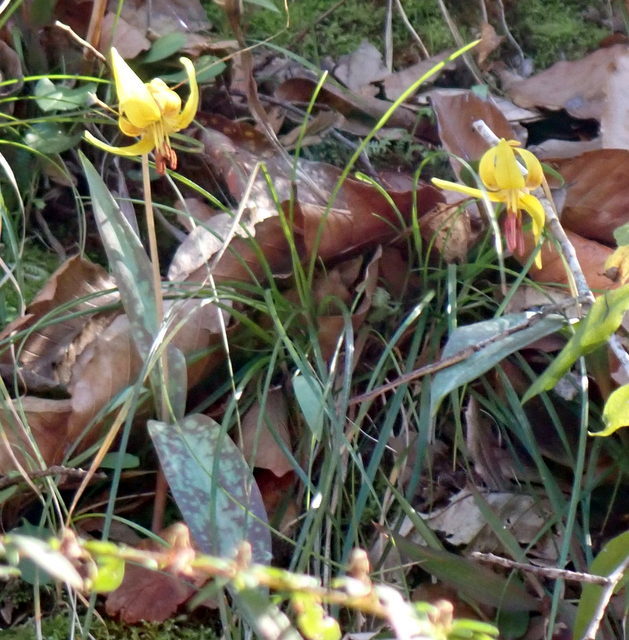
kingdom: Plantae
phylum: Tracheophyta
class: Liliopsida
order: Liliales
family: Liliaceae
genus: Erythronium
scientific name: Erythronium umbilicatum
